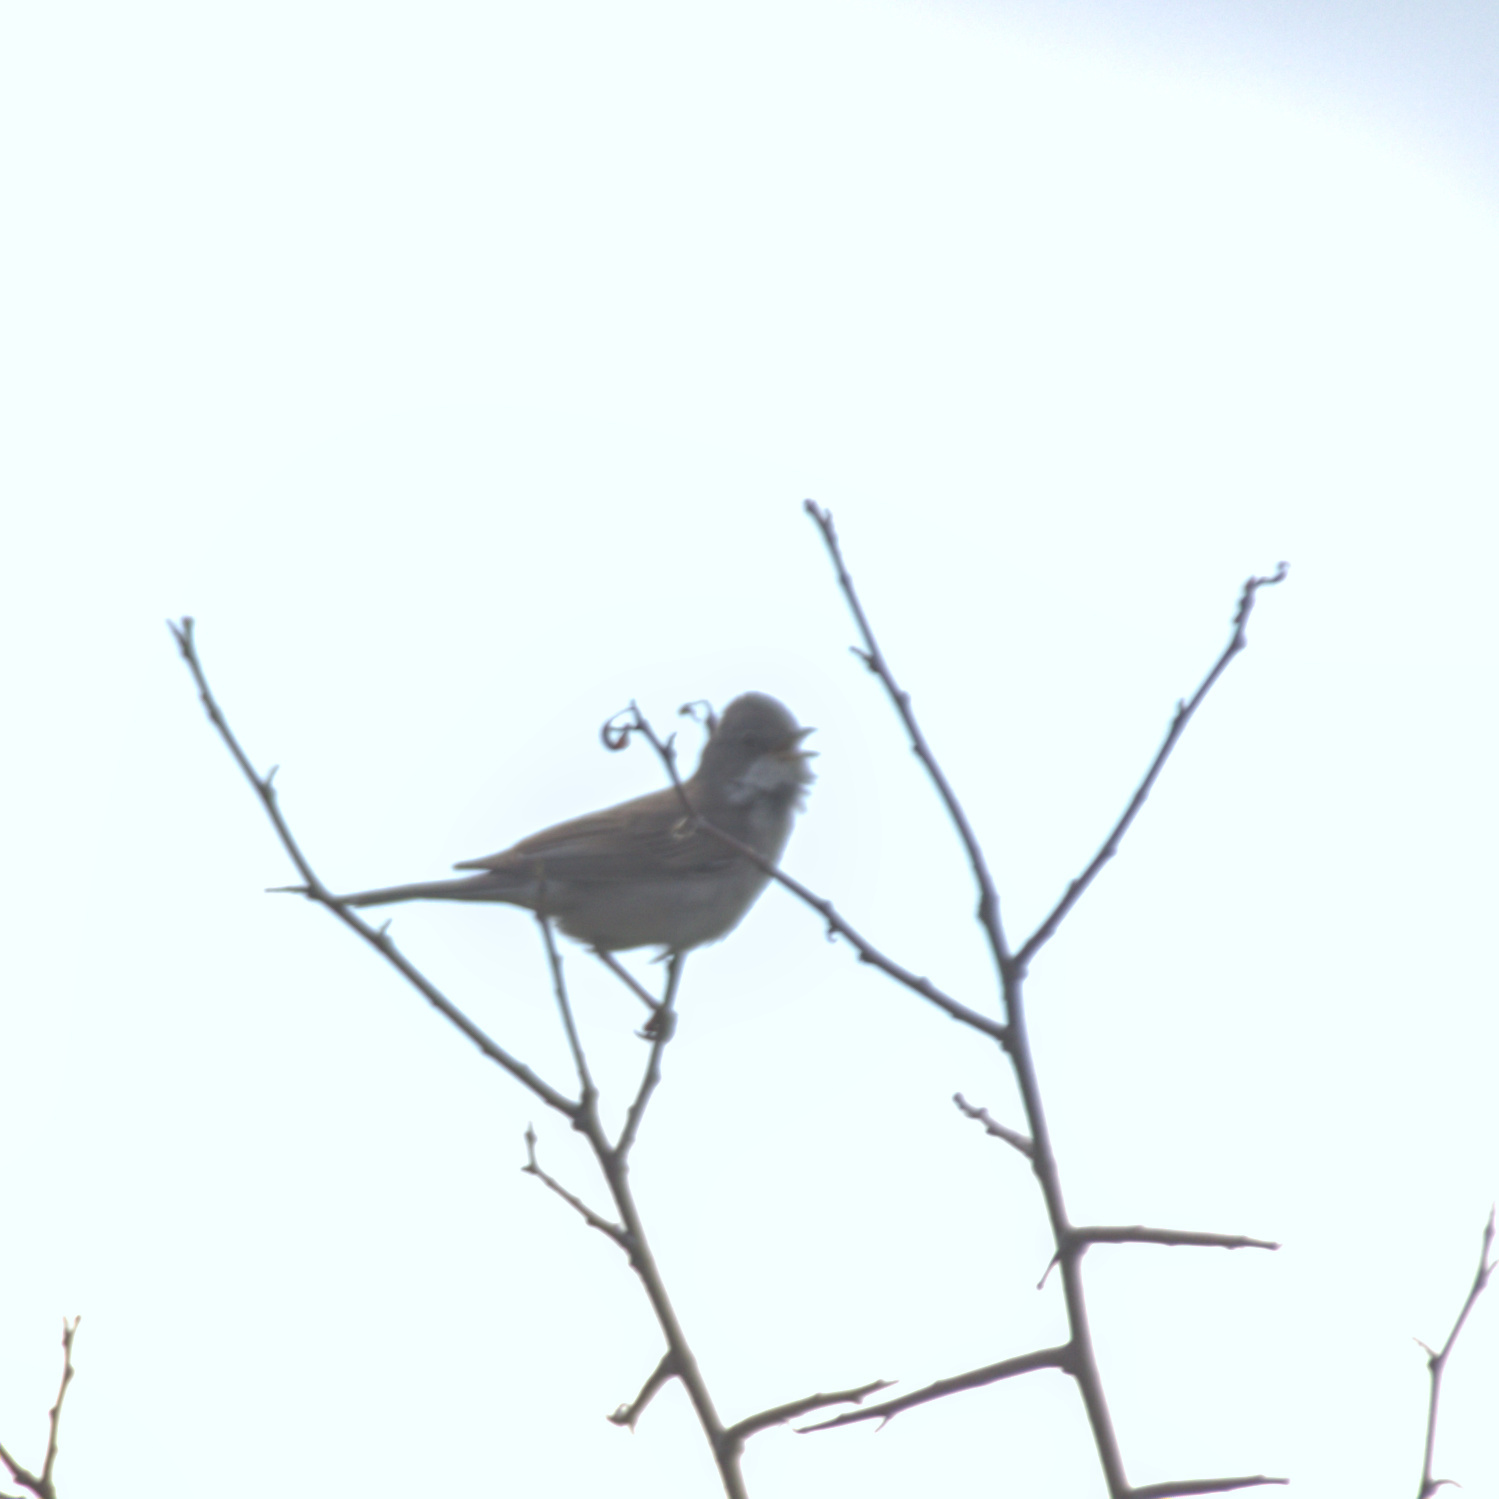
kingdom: Animalia
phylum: Chordata
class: Aves
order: Passeriformes
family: Sylviidae
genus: Sylvia
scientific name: Sylvia communis
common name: Common whitethroat
